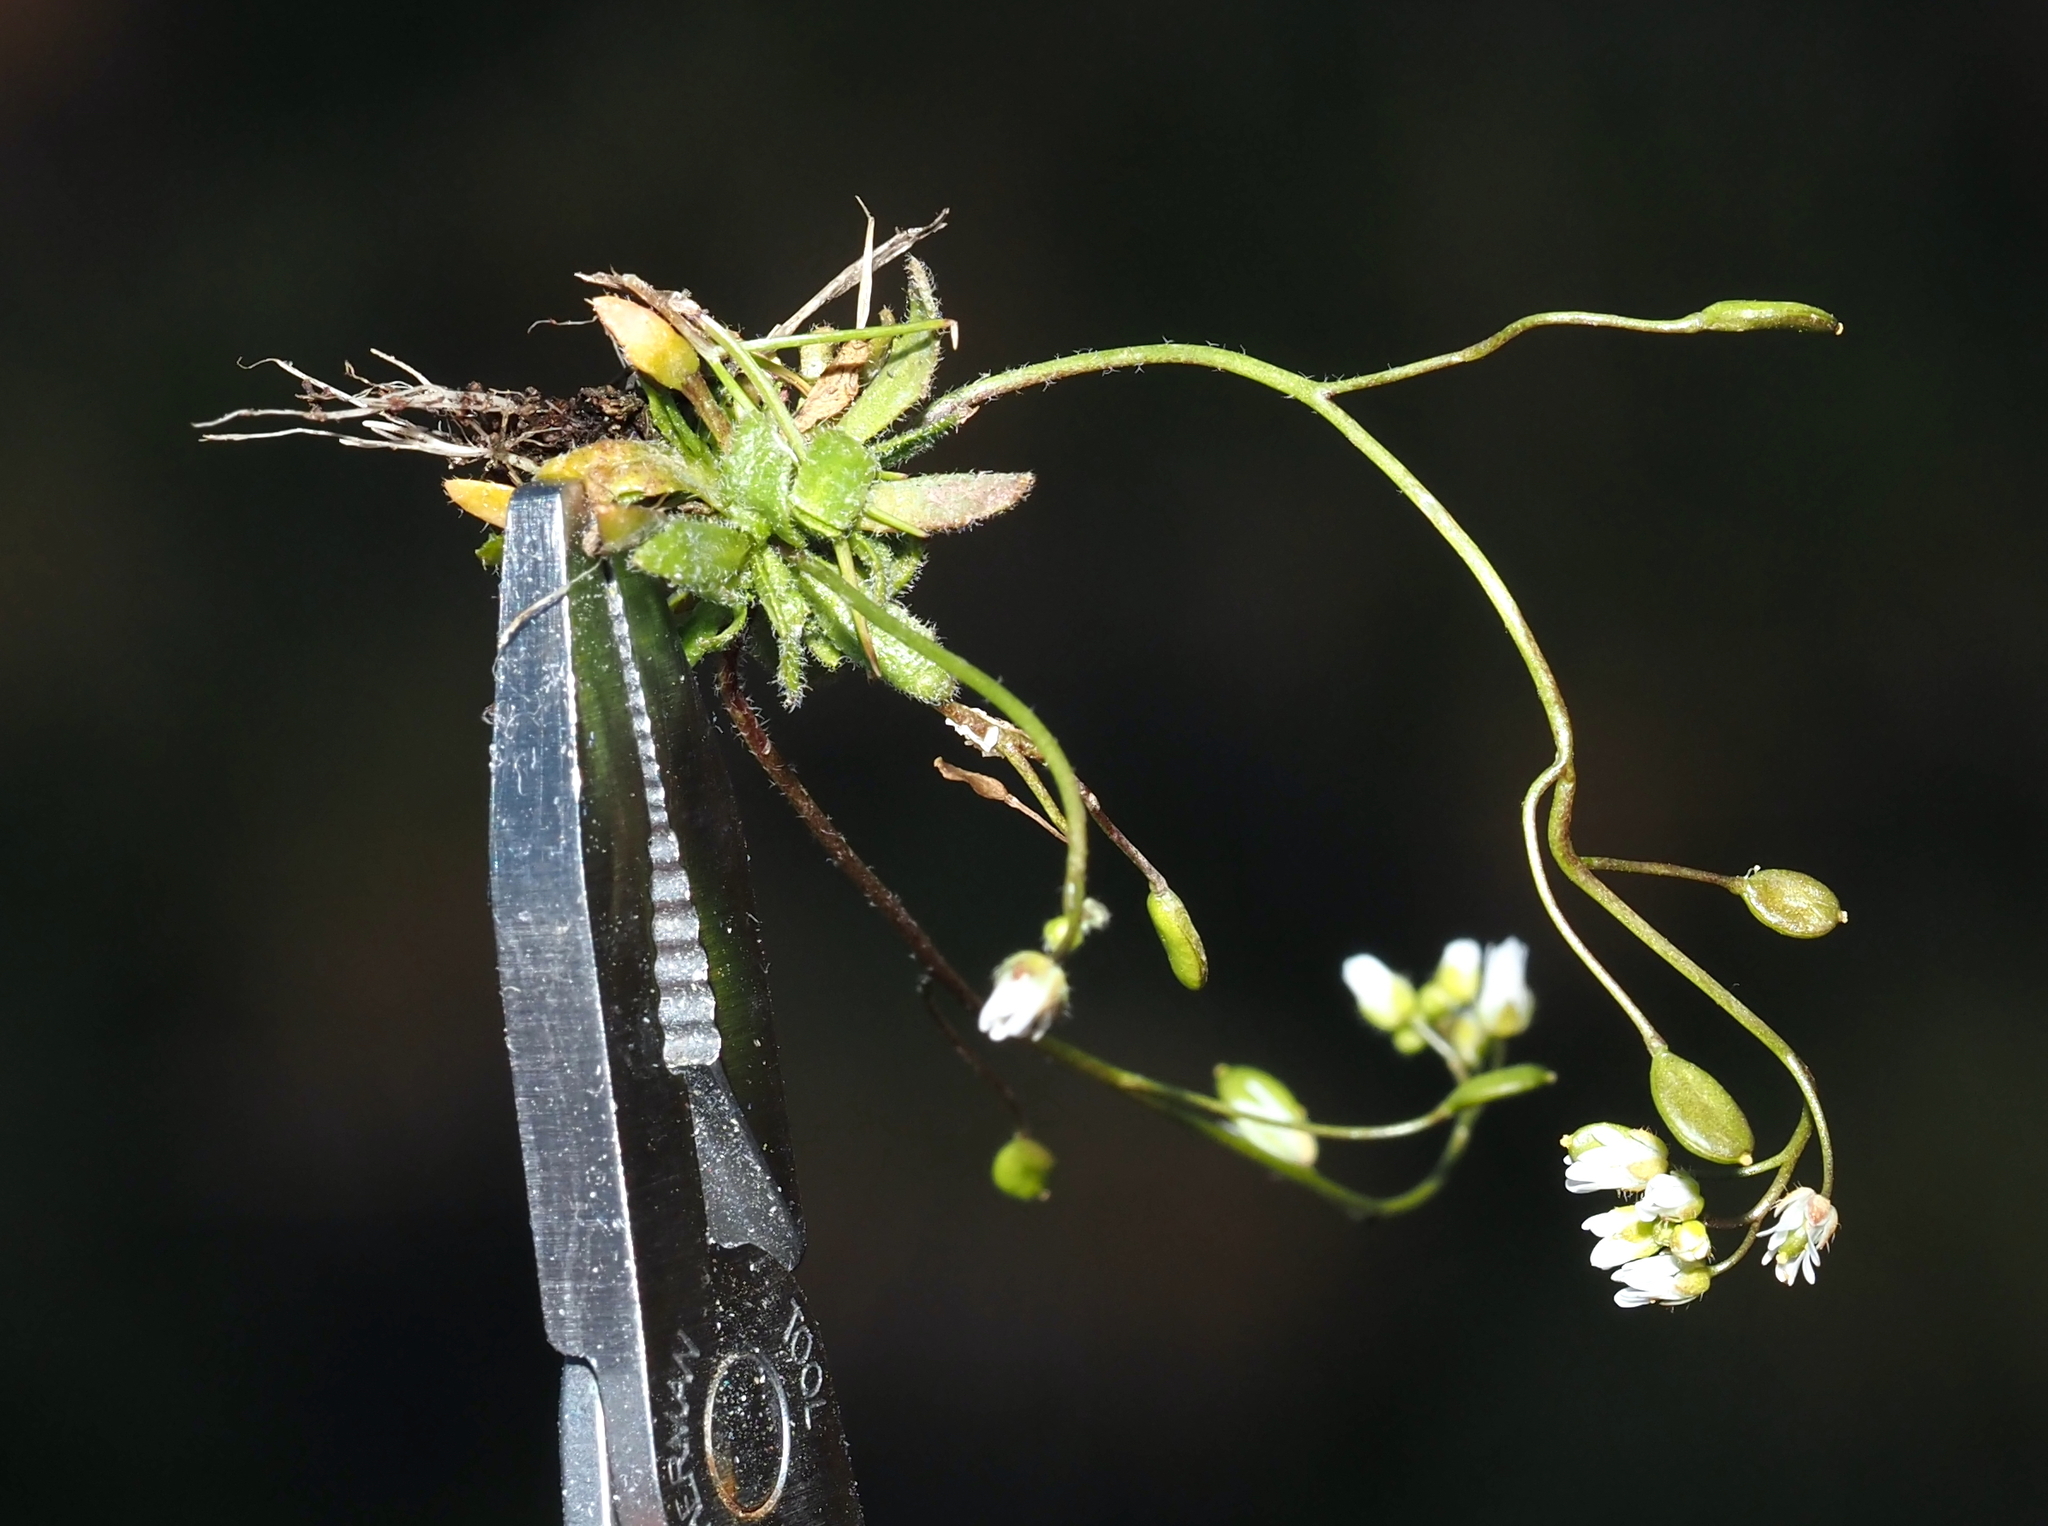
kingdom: Plantae
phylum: Tracheophyta
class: Magnoliopsida
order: Brassicales
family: Brassicaceae
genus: Draba
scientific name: Draba verna
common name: Spring draba
